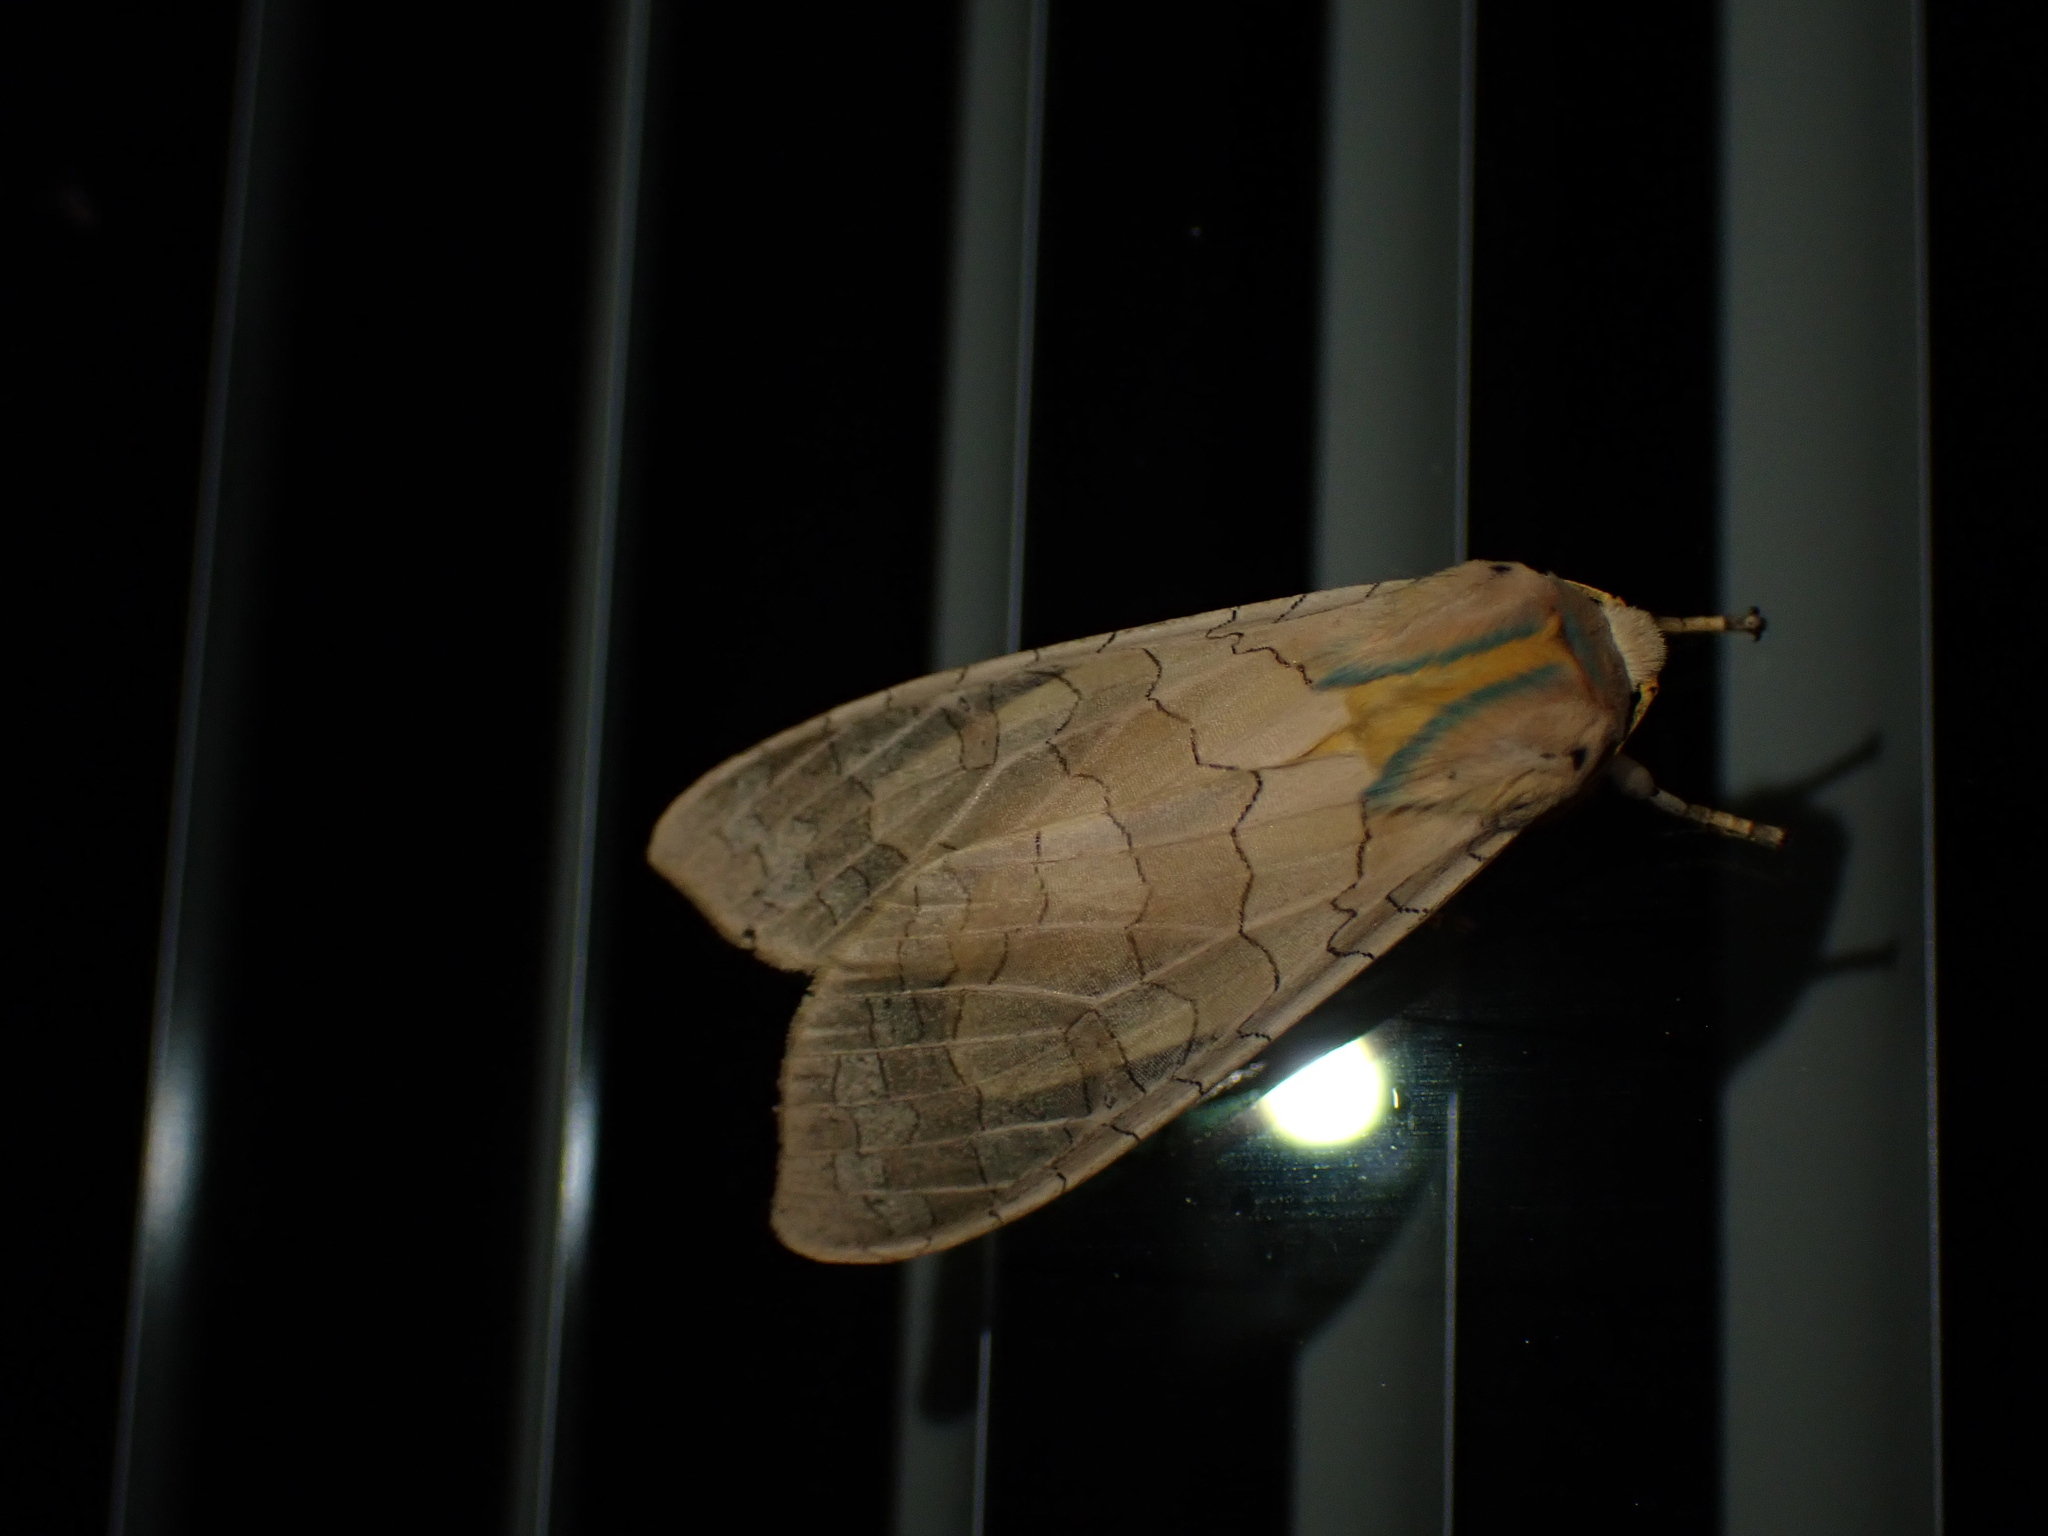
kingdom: Animalia
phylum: Arthropoda
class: Insecta
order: Lepidoptera
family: Erebidae
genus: Halysidota
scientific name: Halysidota
